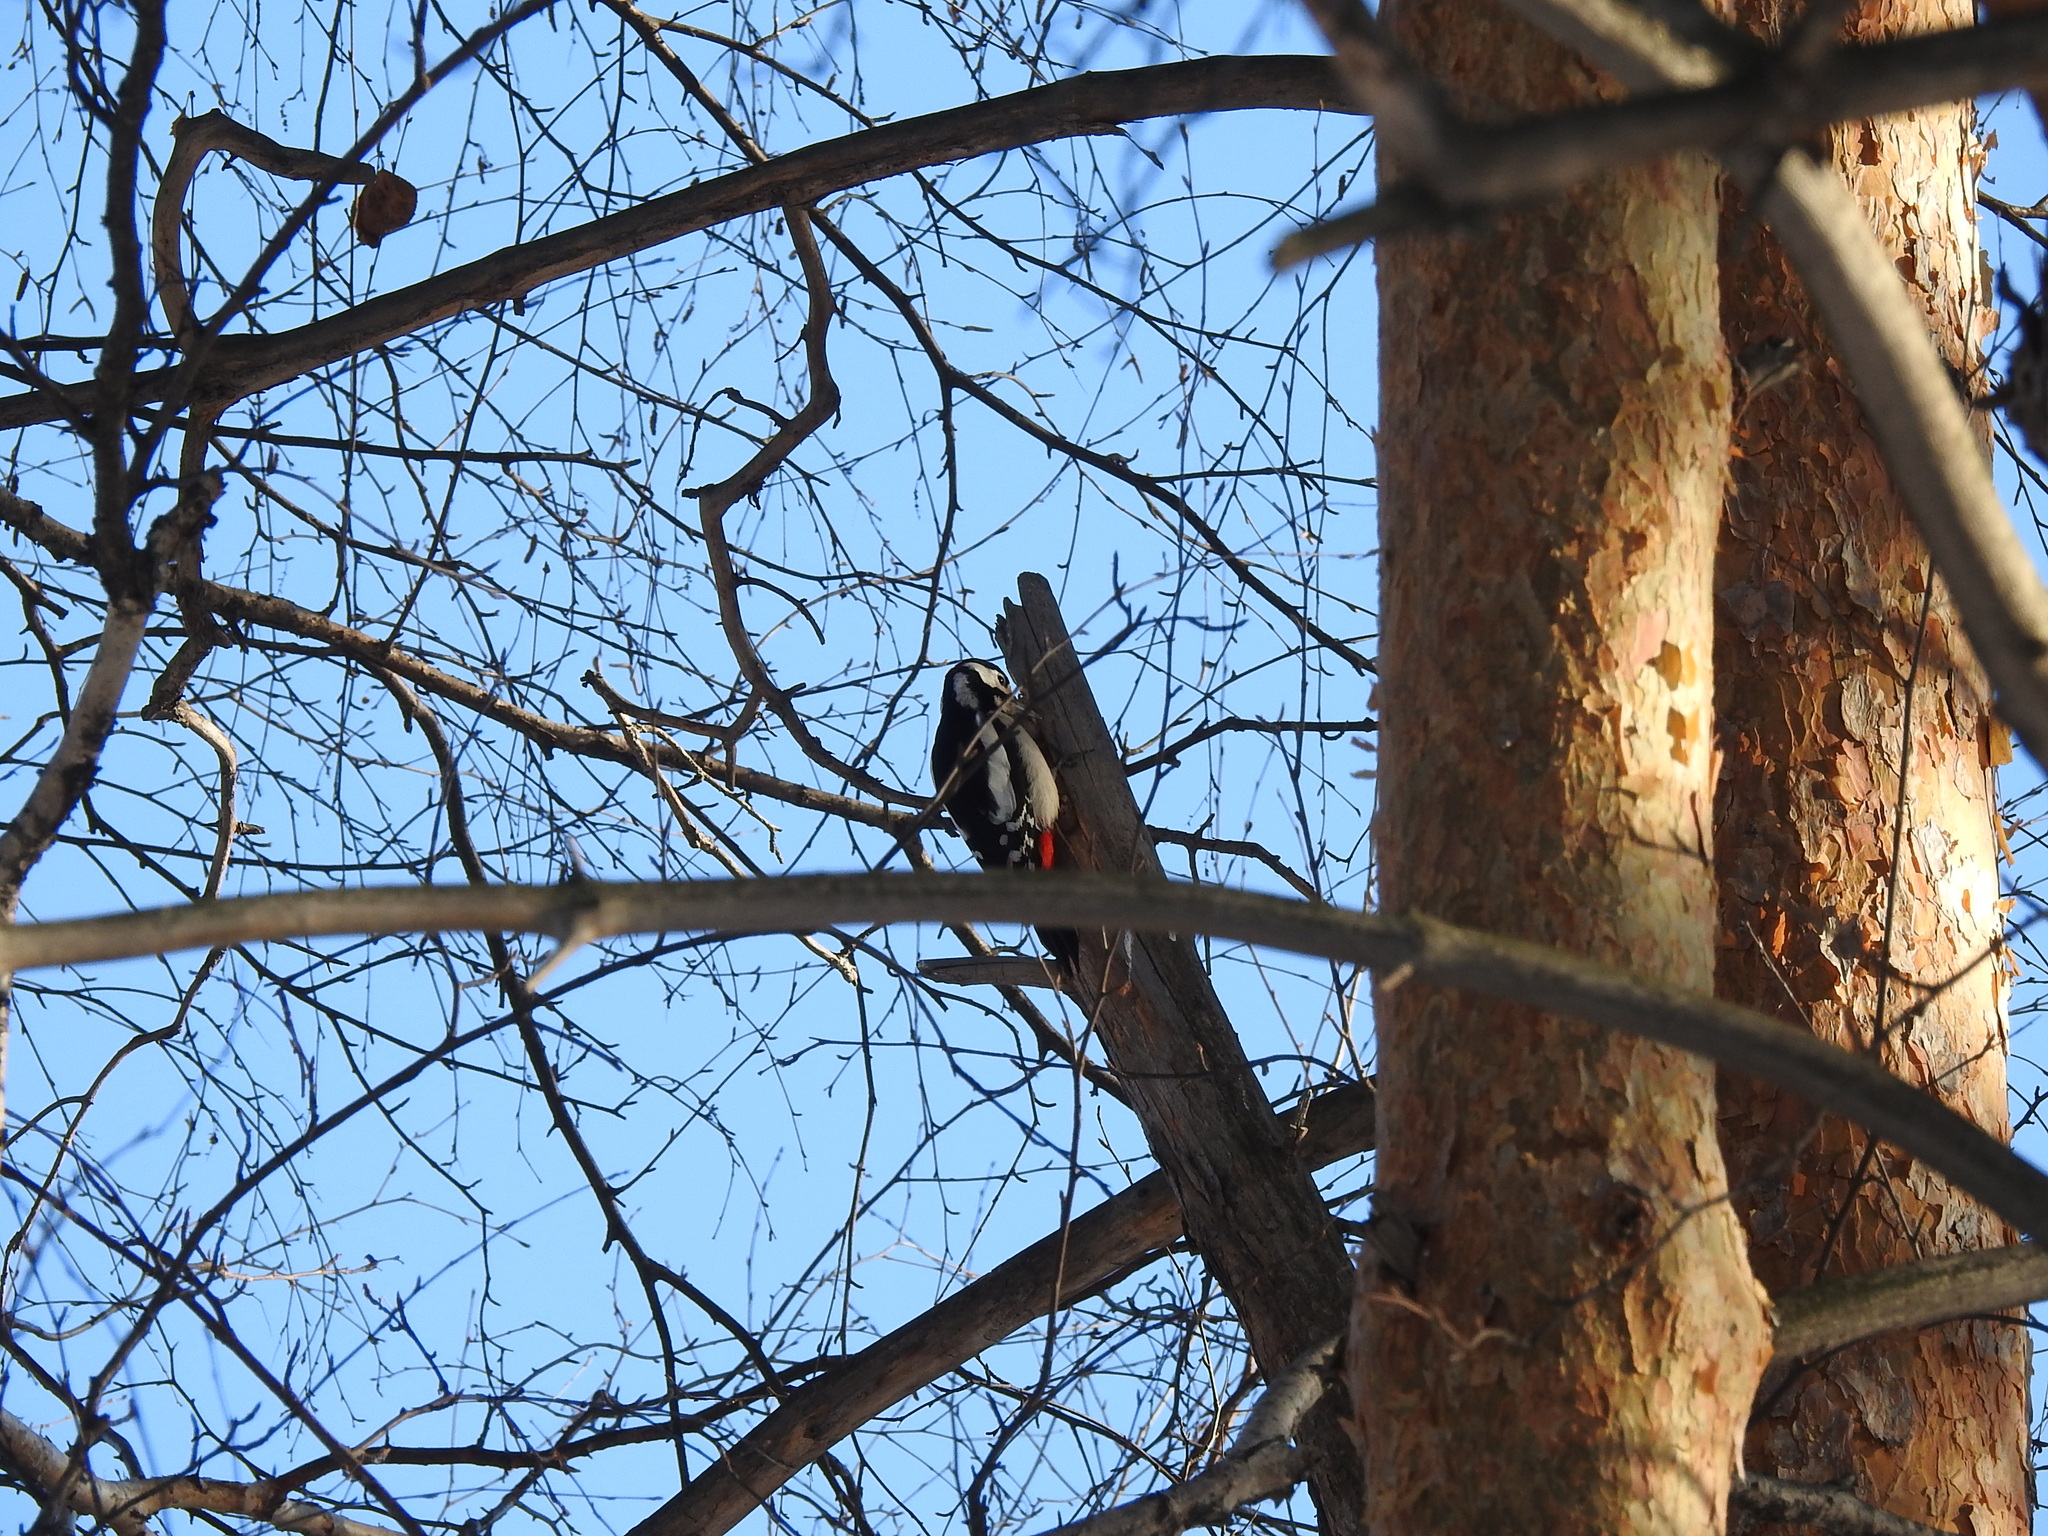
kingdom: Animalia
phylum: Chordata
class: Aves
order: Piciformes
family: Picidae
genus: Dendrocopos
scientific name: Dendrocopos major
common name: Great spotted woodpecker
